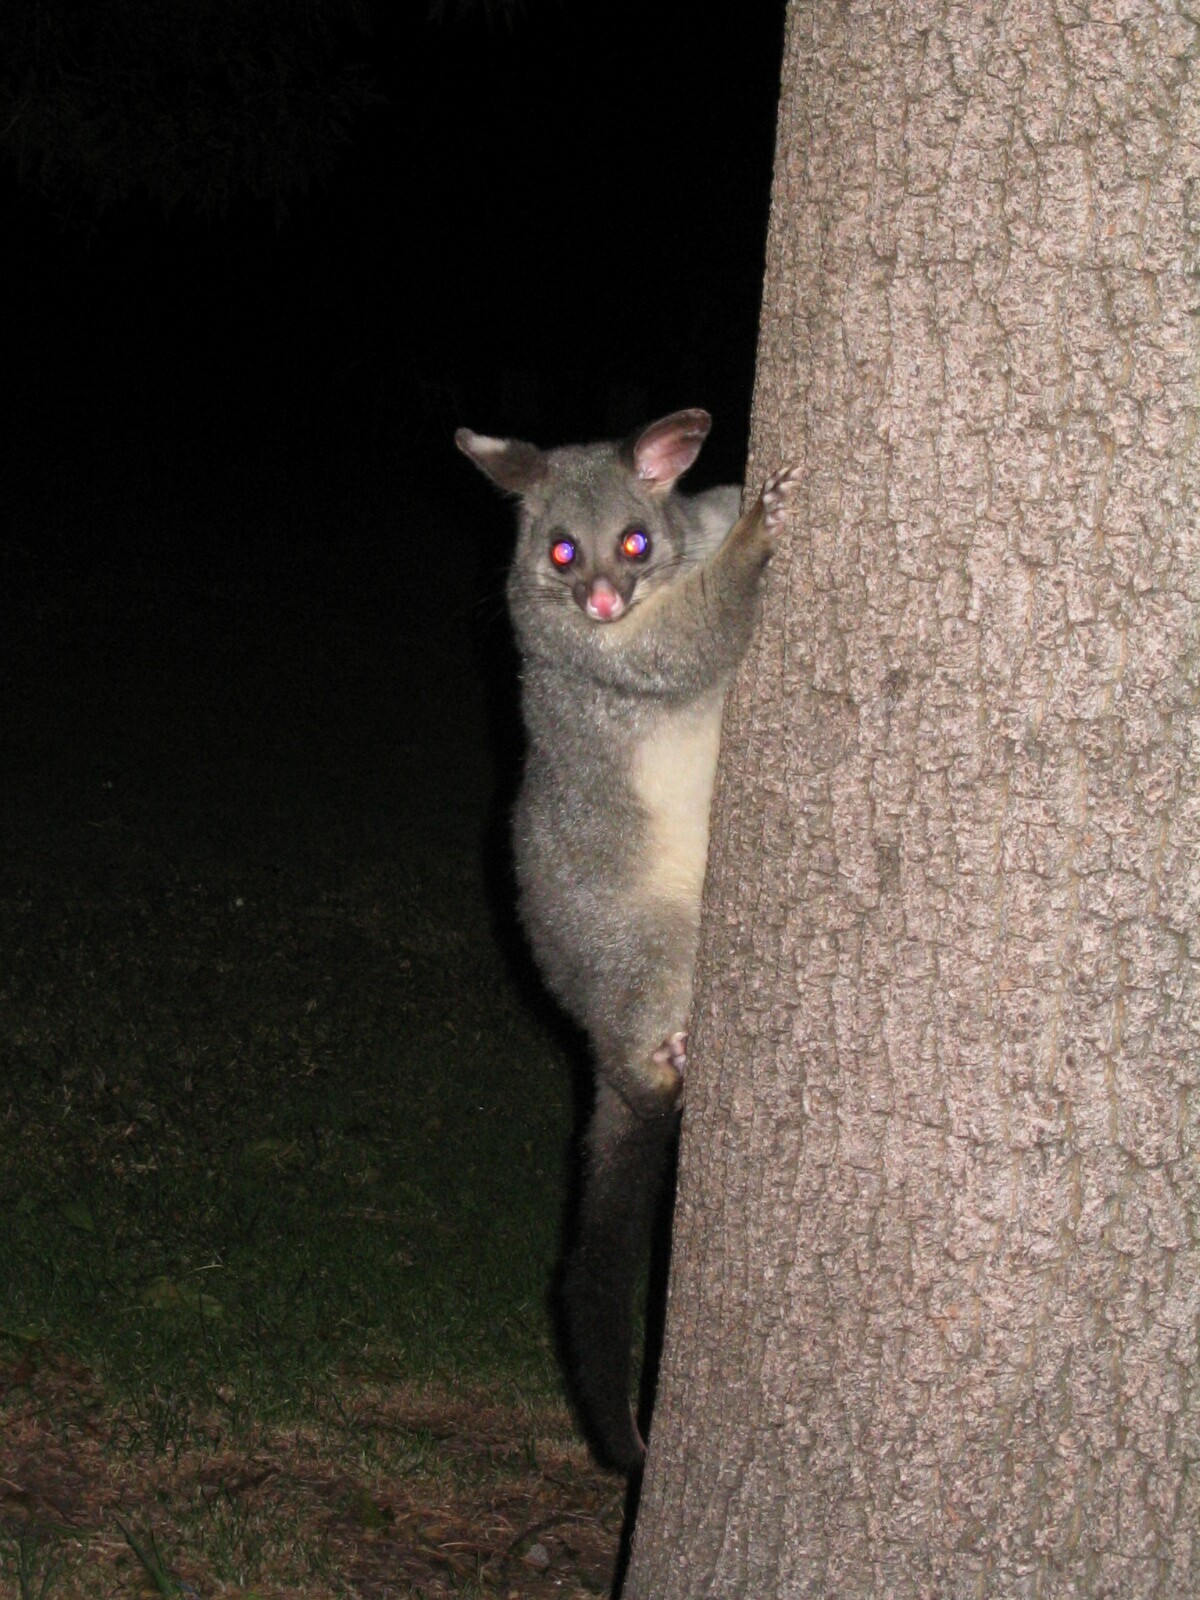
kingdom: Animalia
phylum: Chordata
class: Mammalia
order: Diprotodontia
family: Phalangeridae
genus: Trichosurus
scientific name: Trichosurus vulpecula
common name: Common brushtail
